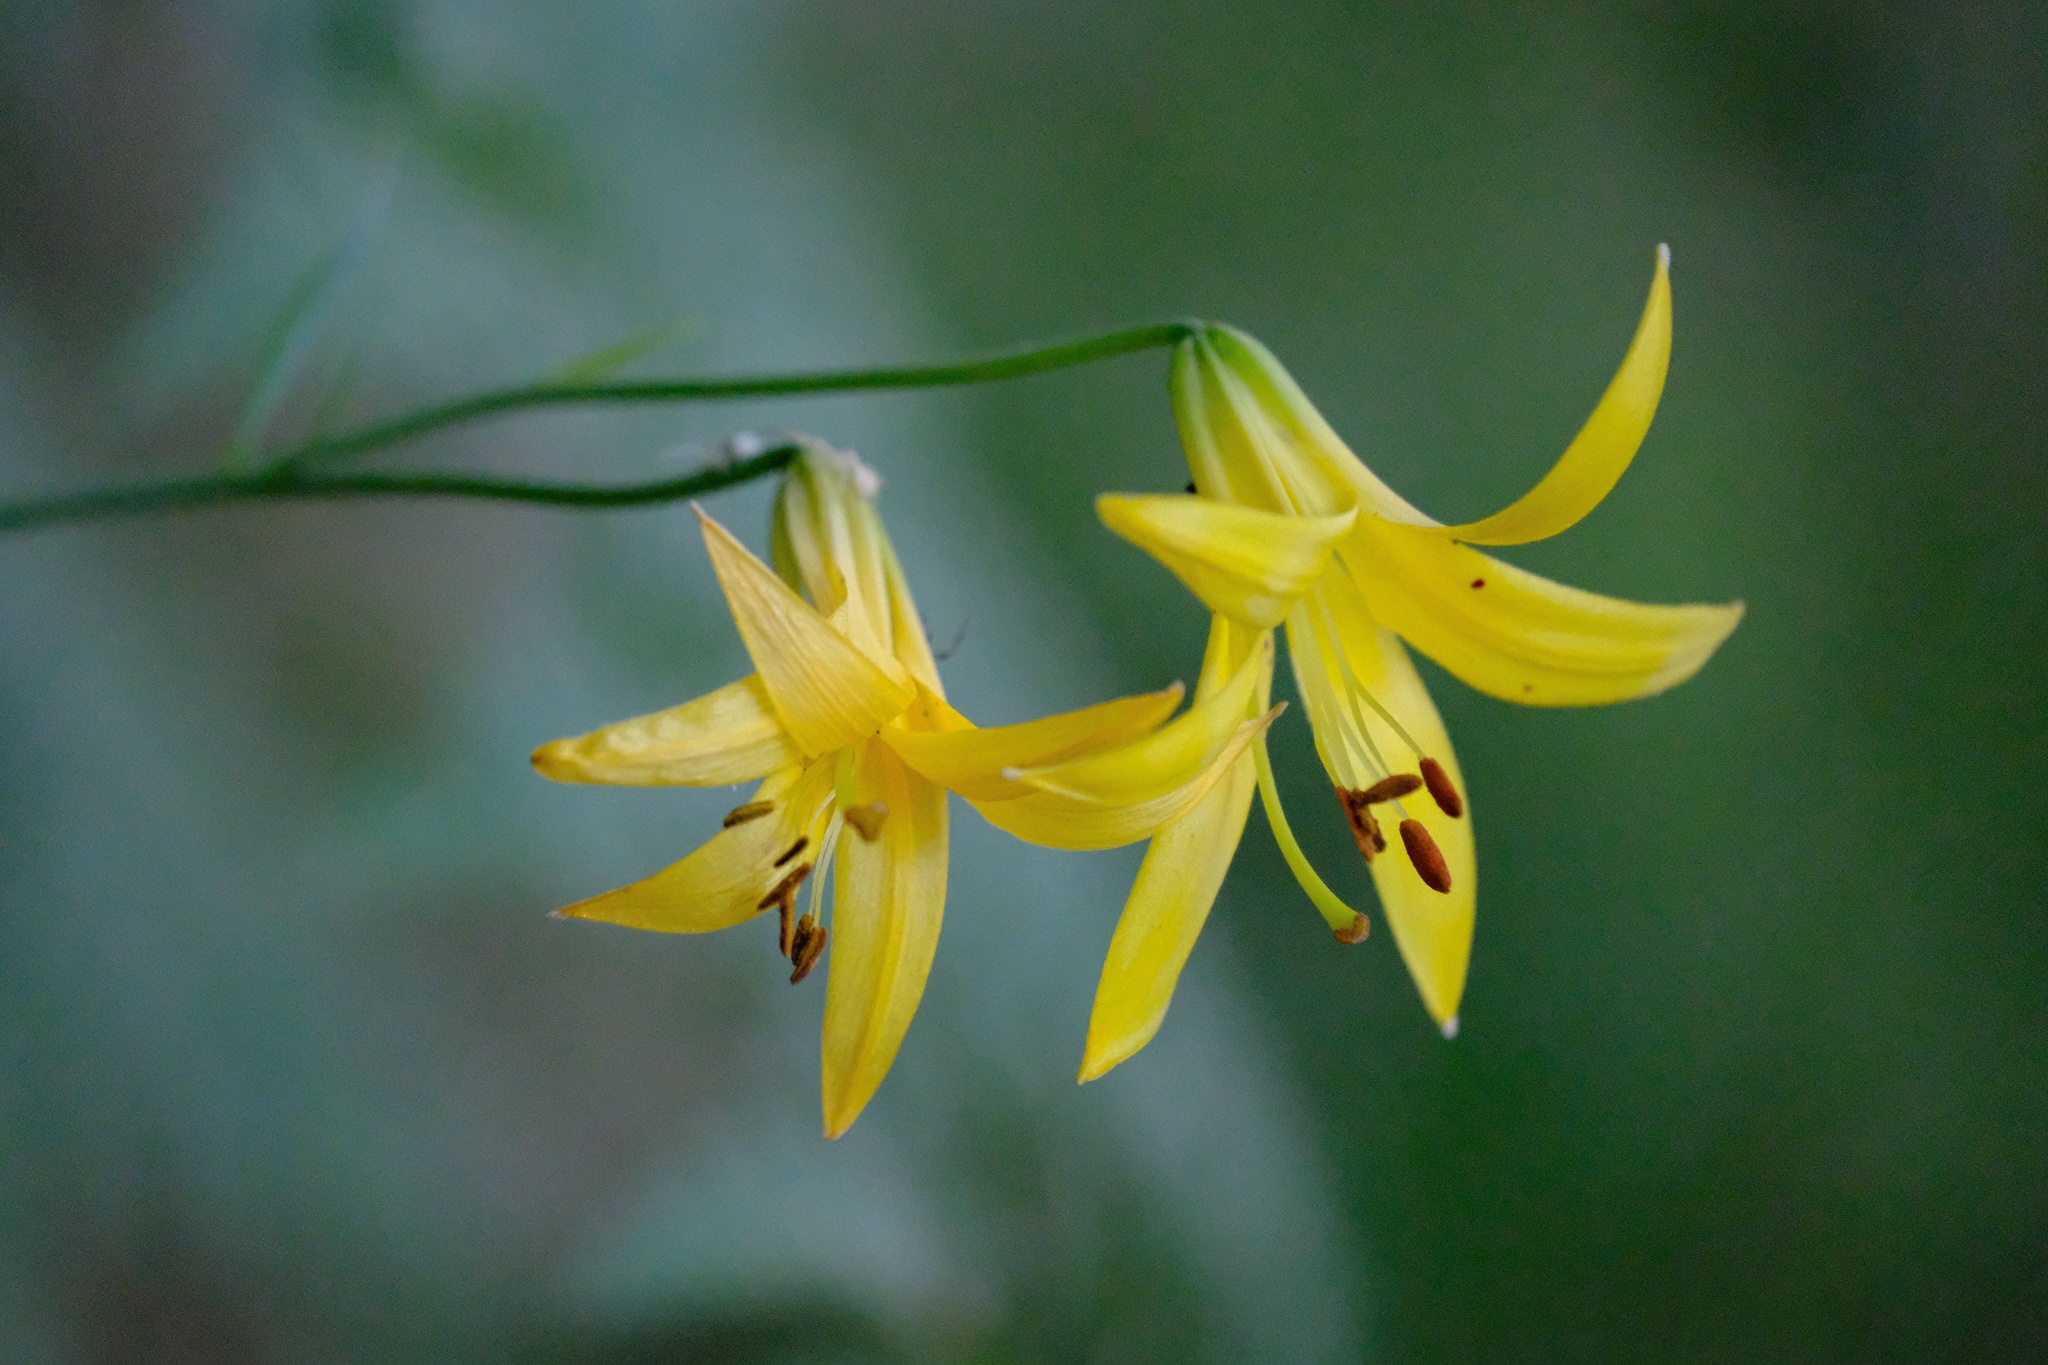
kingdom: Plantae
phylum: Tracheophyta
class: Liliopsida
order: Liliales
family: Liliaceae
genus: Lilium
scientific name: Lilium parryi
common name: Lemon lily
